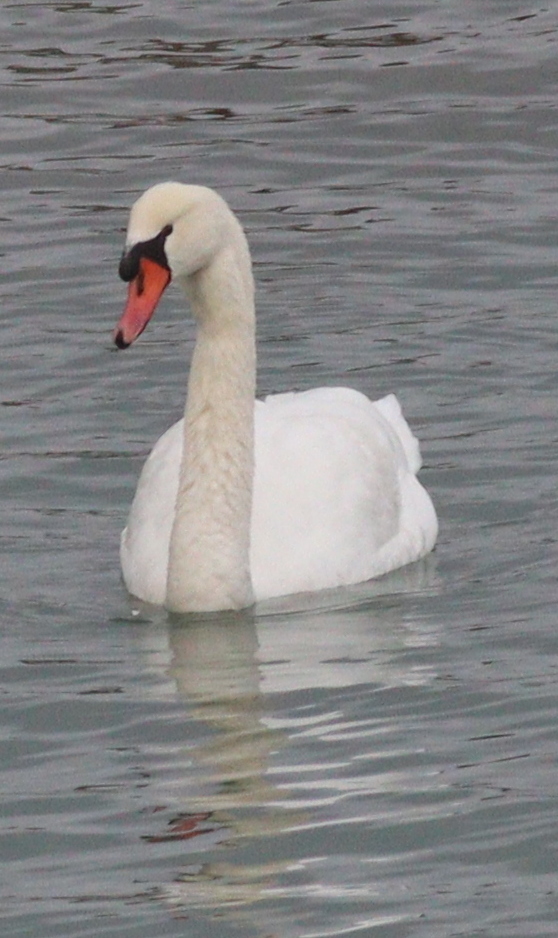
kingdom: Animalia
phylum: Chordata
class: Aves
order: Anseriformes
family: Anatidae
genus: Cygnus
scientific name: Cygnus olor
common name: Mute swan
